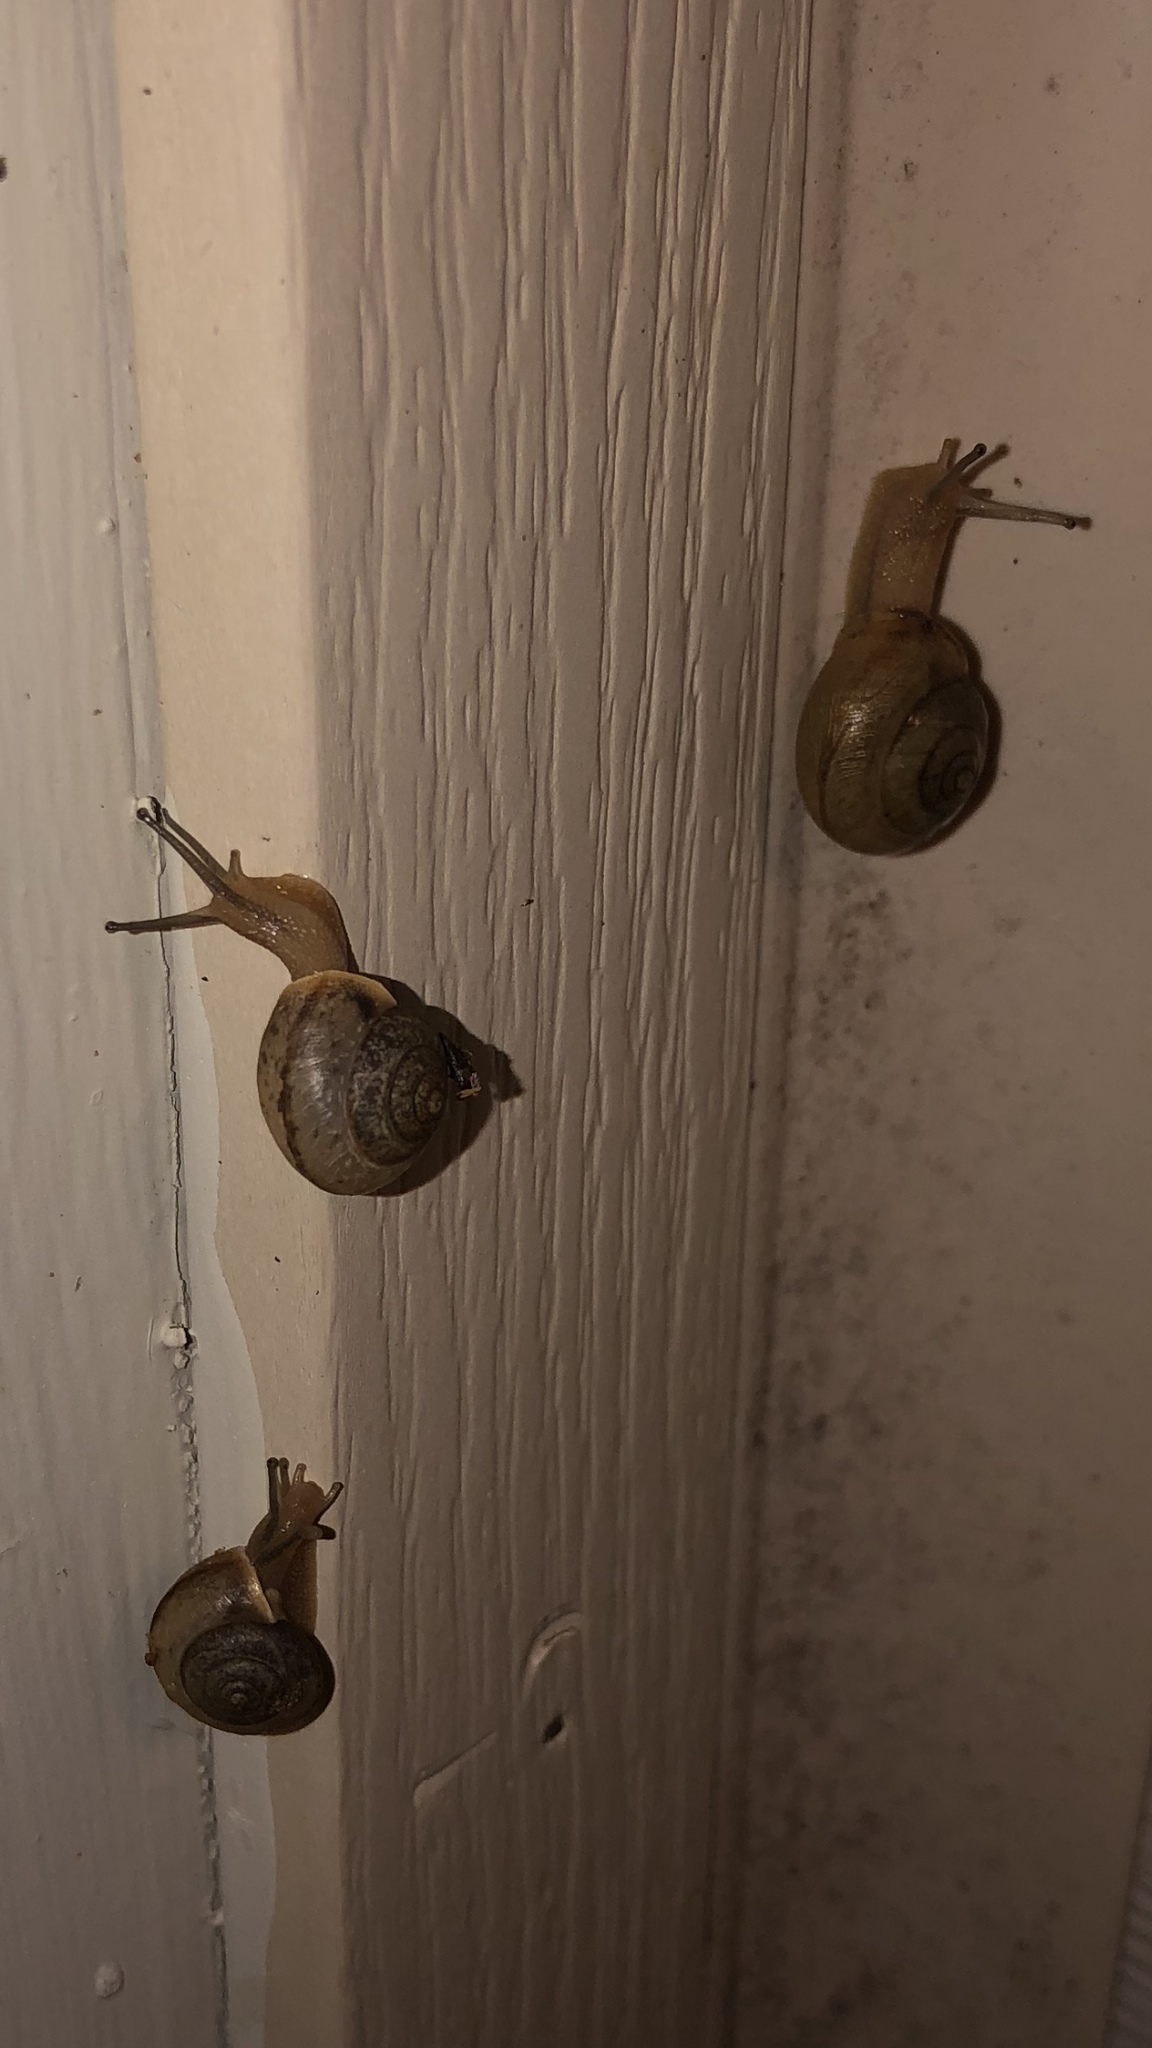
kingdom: Animalia
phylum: Mollusca
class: Gastropoda
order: Stylommatophora
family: Camaenidae
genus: Bradybaena
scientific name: Bradybaena similaris
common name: Asian trampsnail
